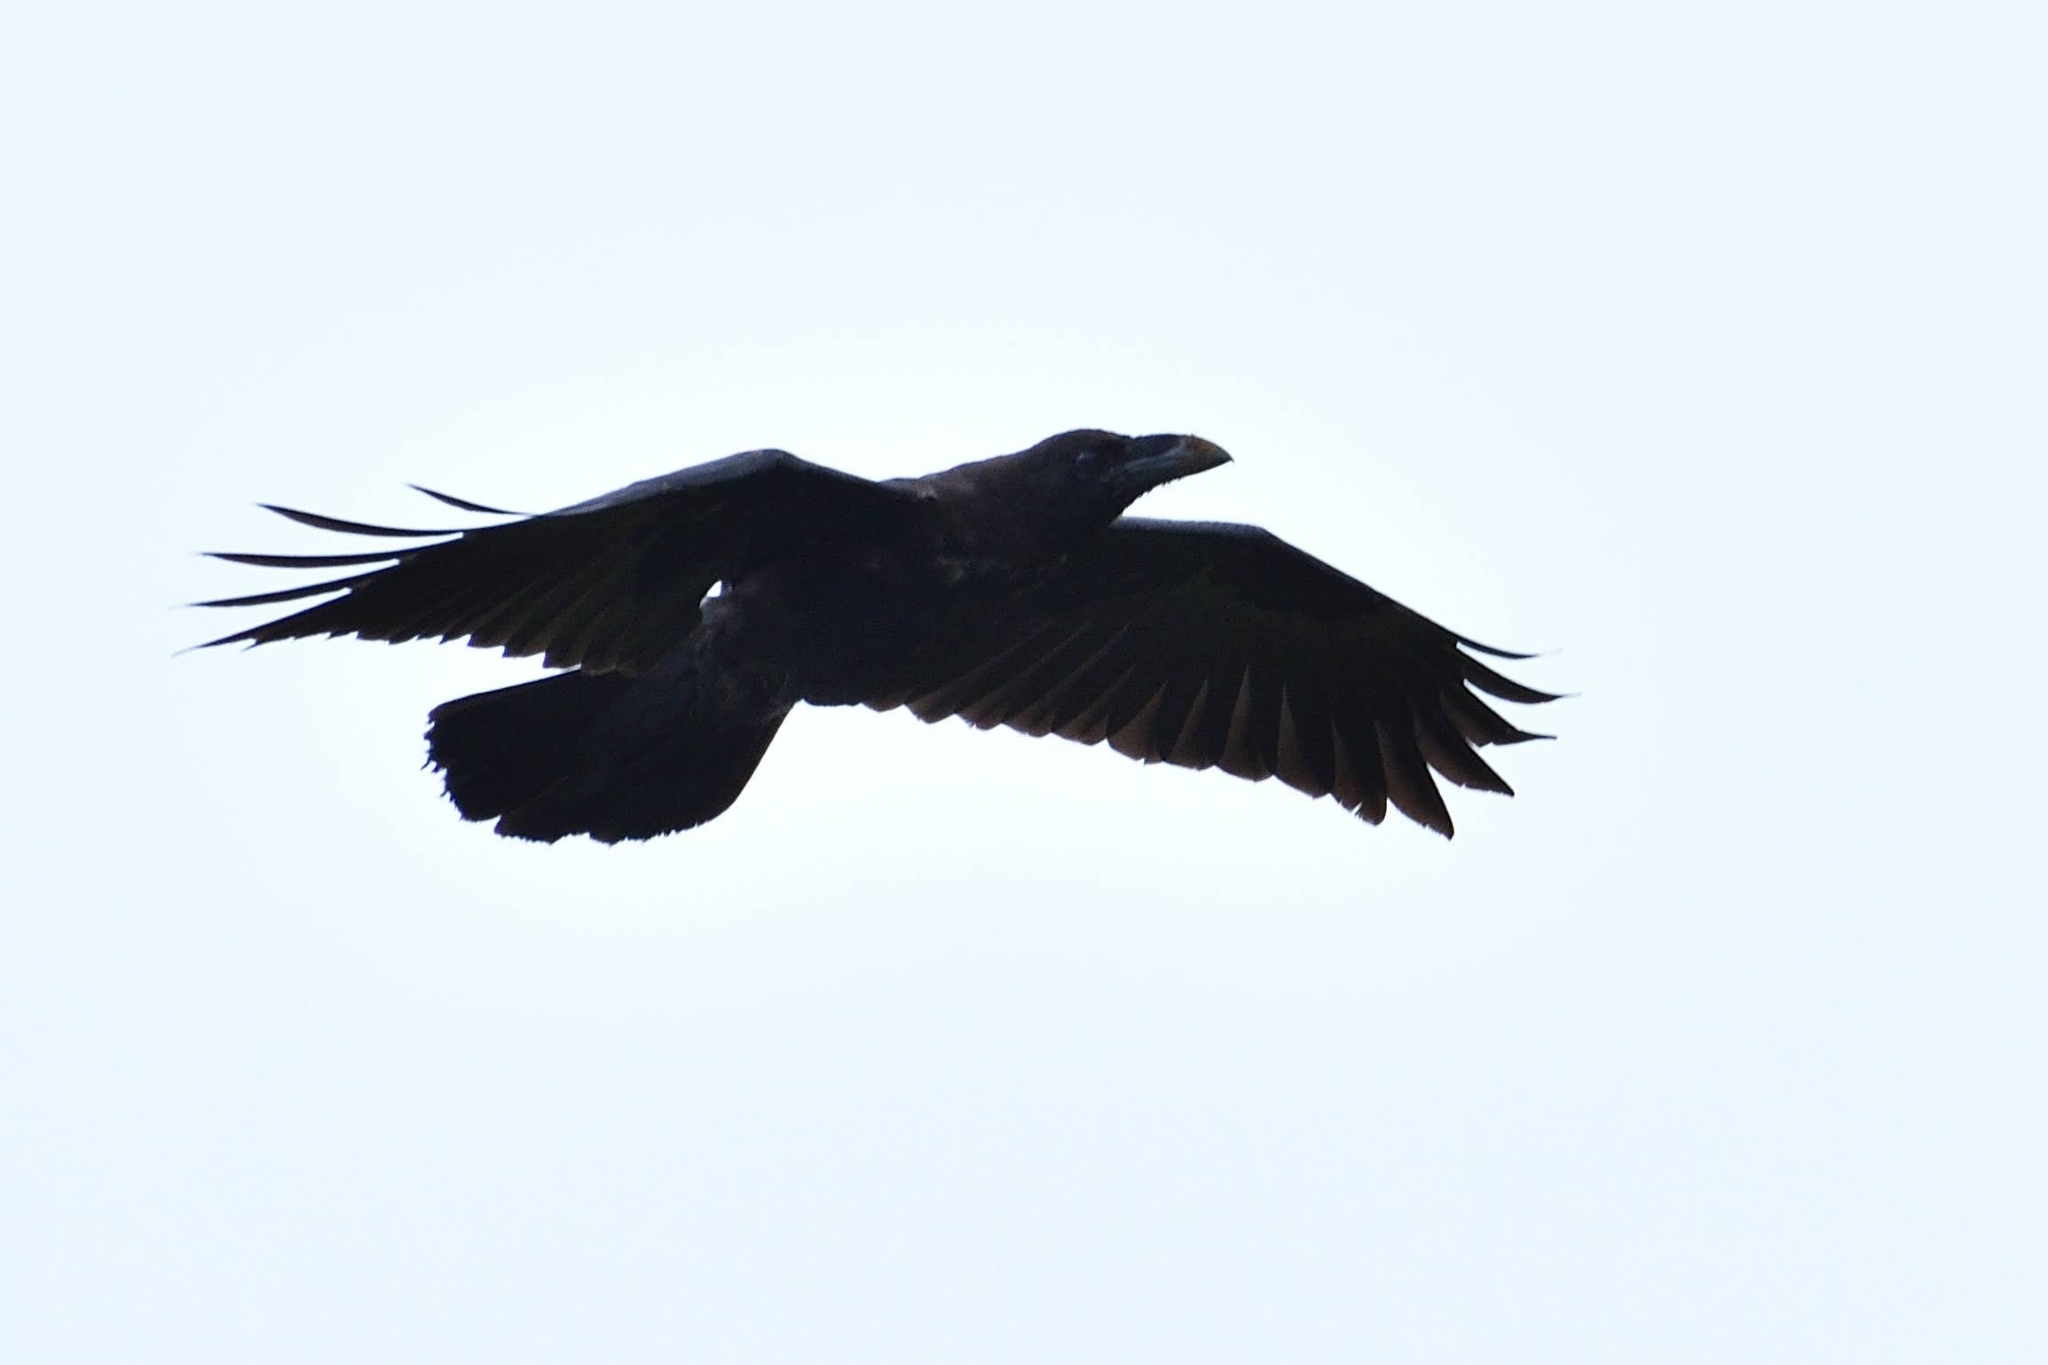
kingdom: Animalia
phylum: Chordata
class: Aves
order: Passeriformes
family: Corvidae
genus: Corvus
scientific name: Corvus corax
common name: Common raven
